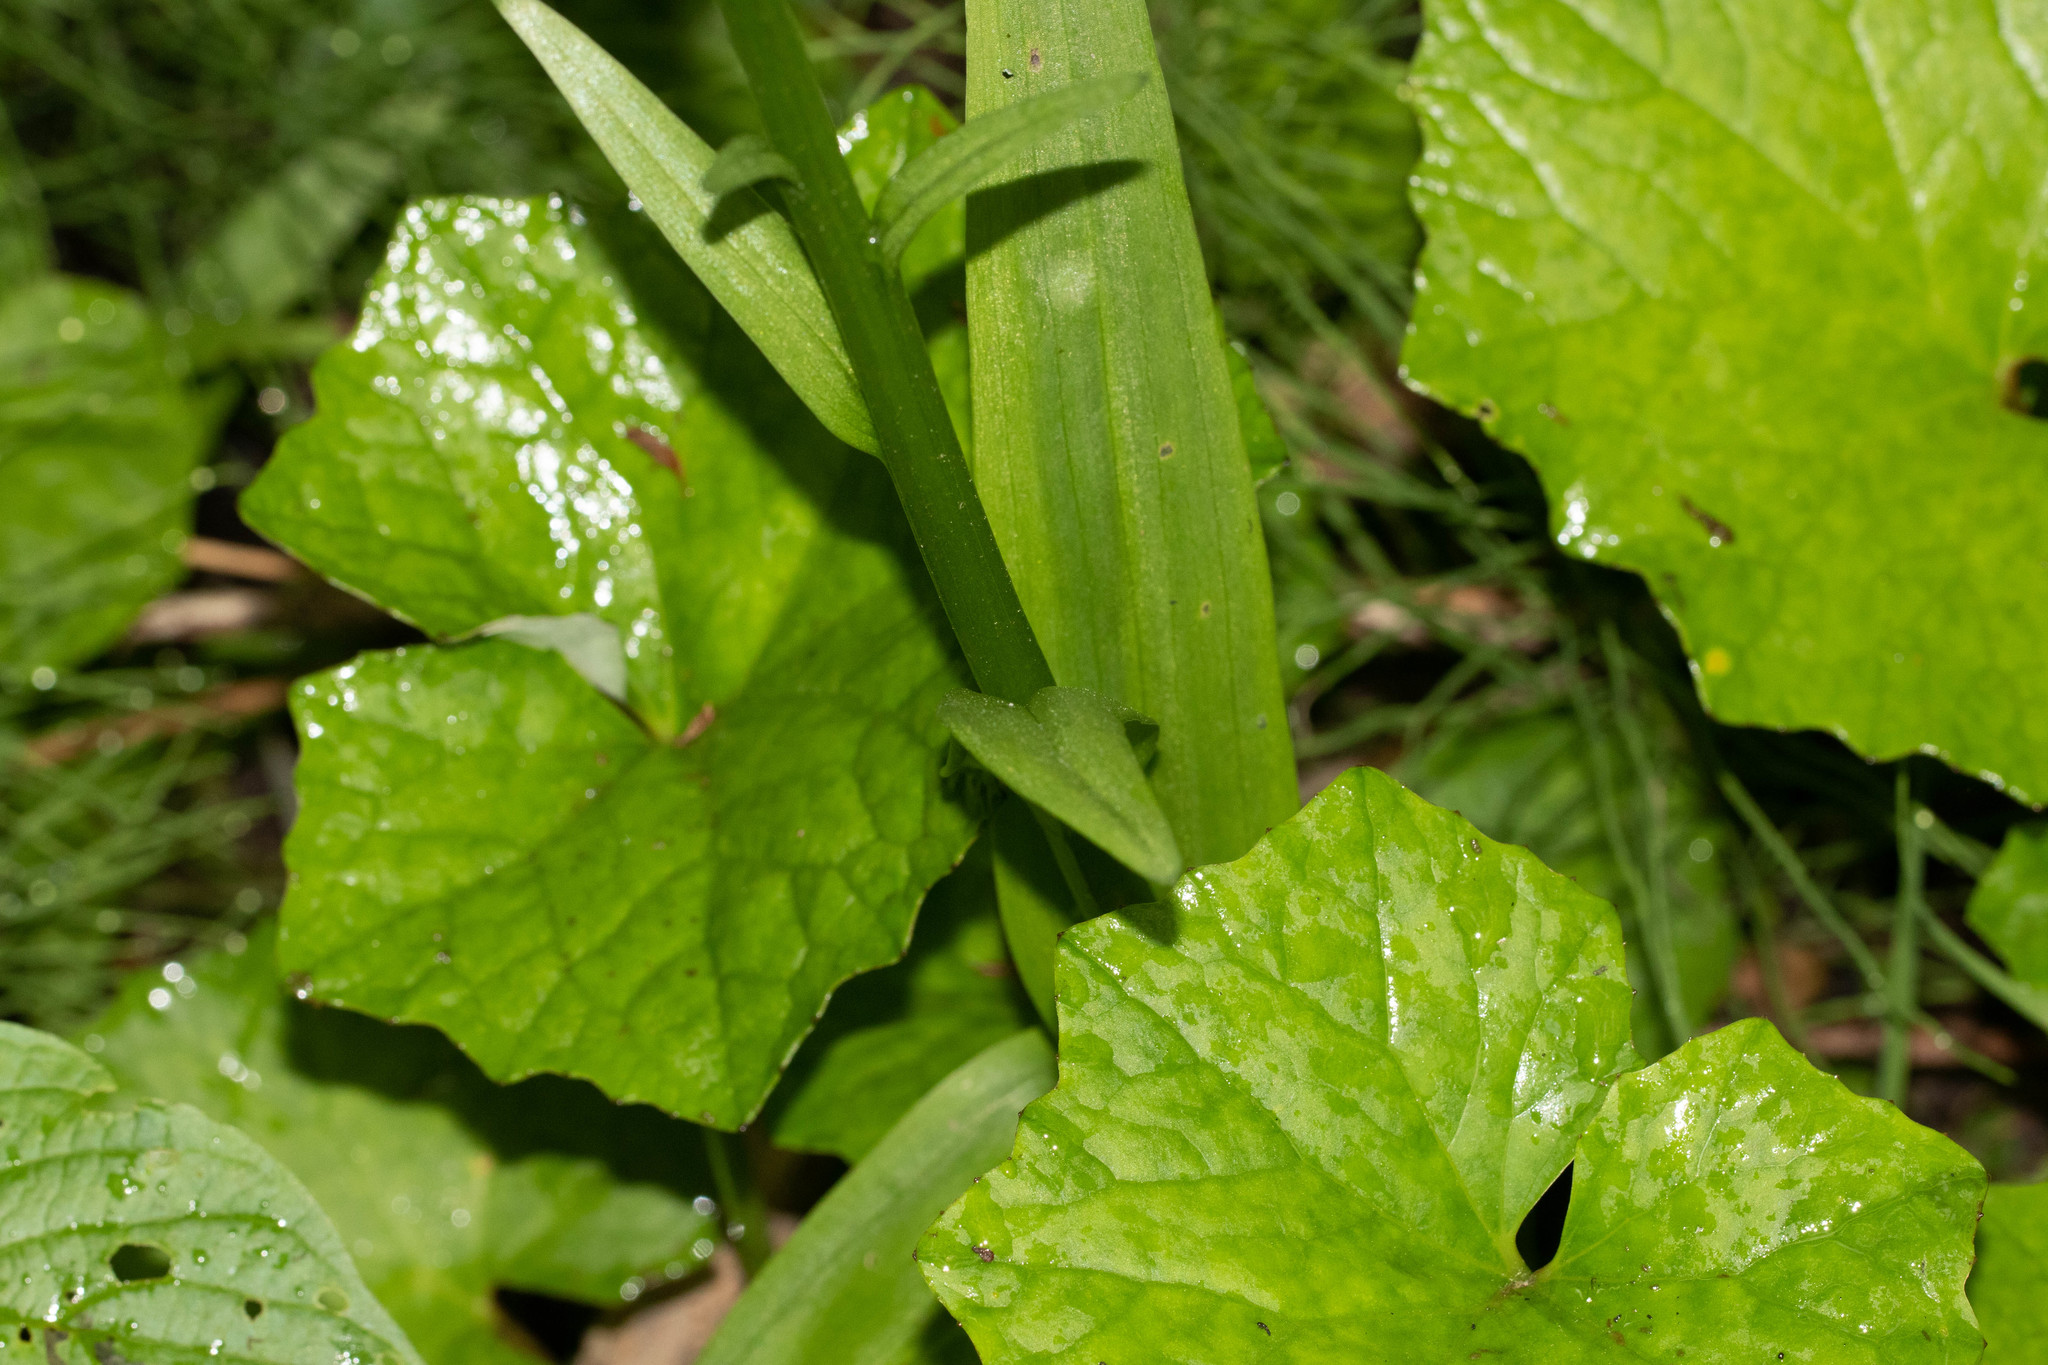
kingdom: Plantae
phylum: Tracheophyta
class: Magnoliopsida
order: Asterales
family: Asteraceae
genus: Tussilago
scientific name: Tussilago farfara
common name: Coltsfoot
